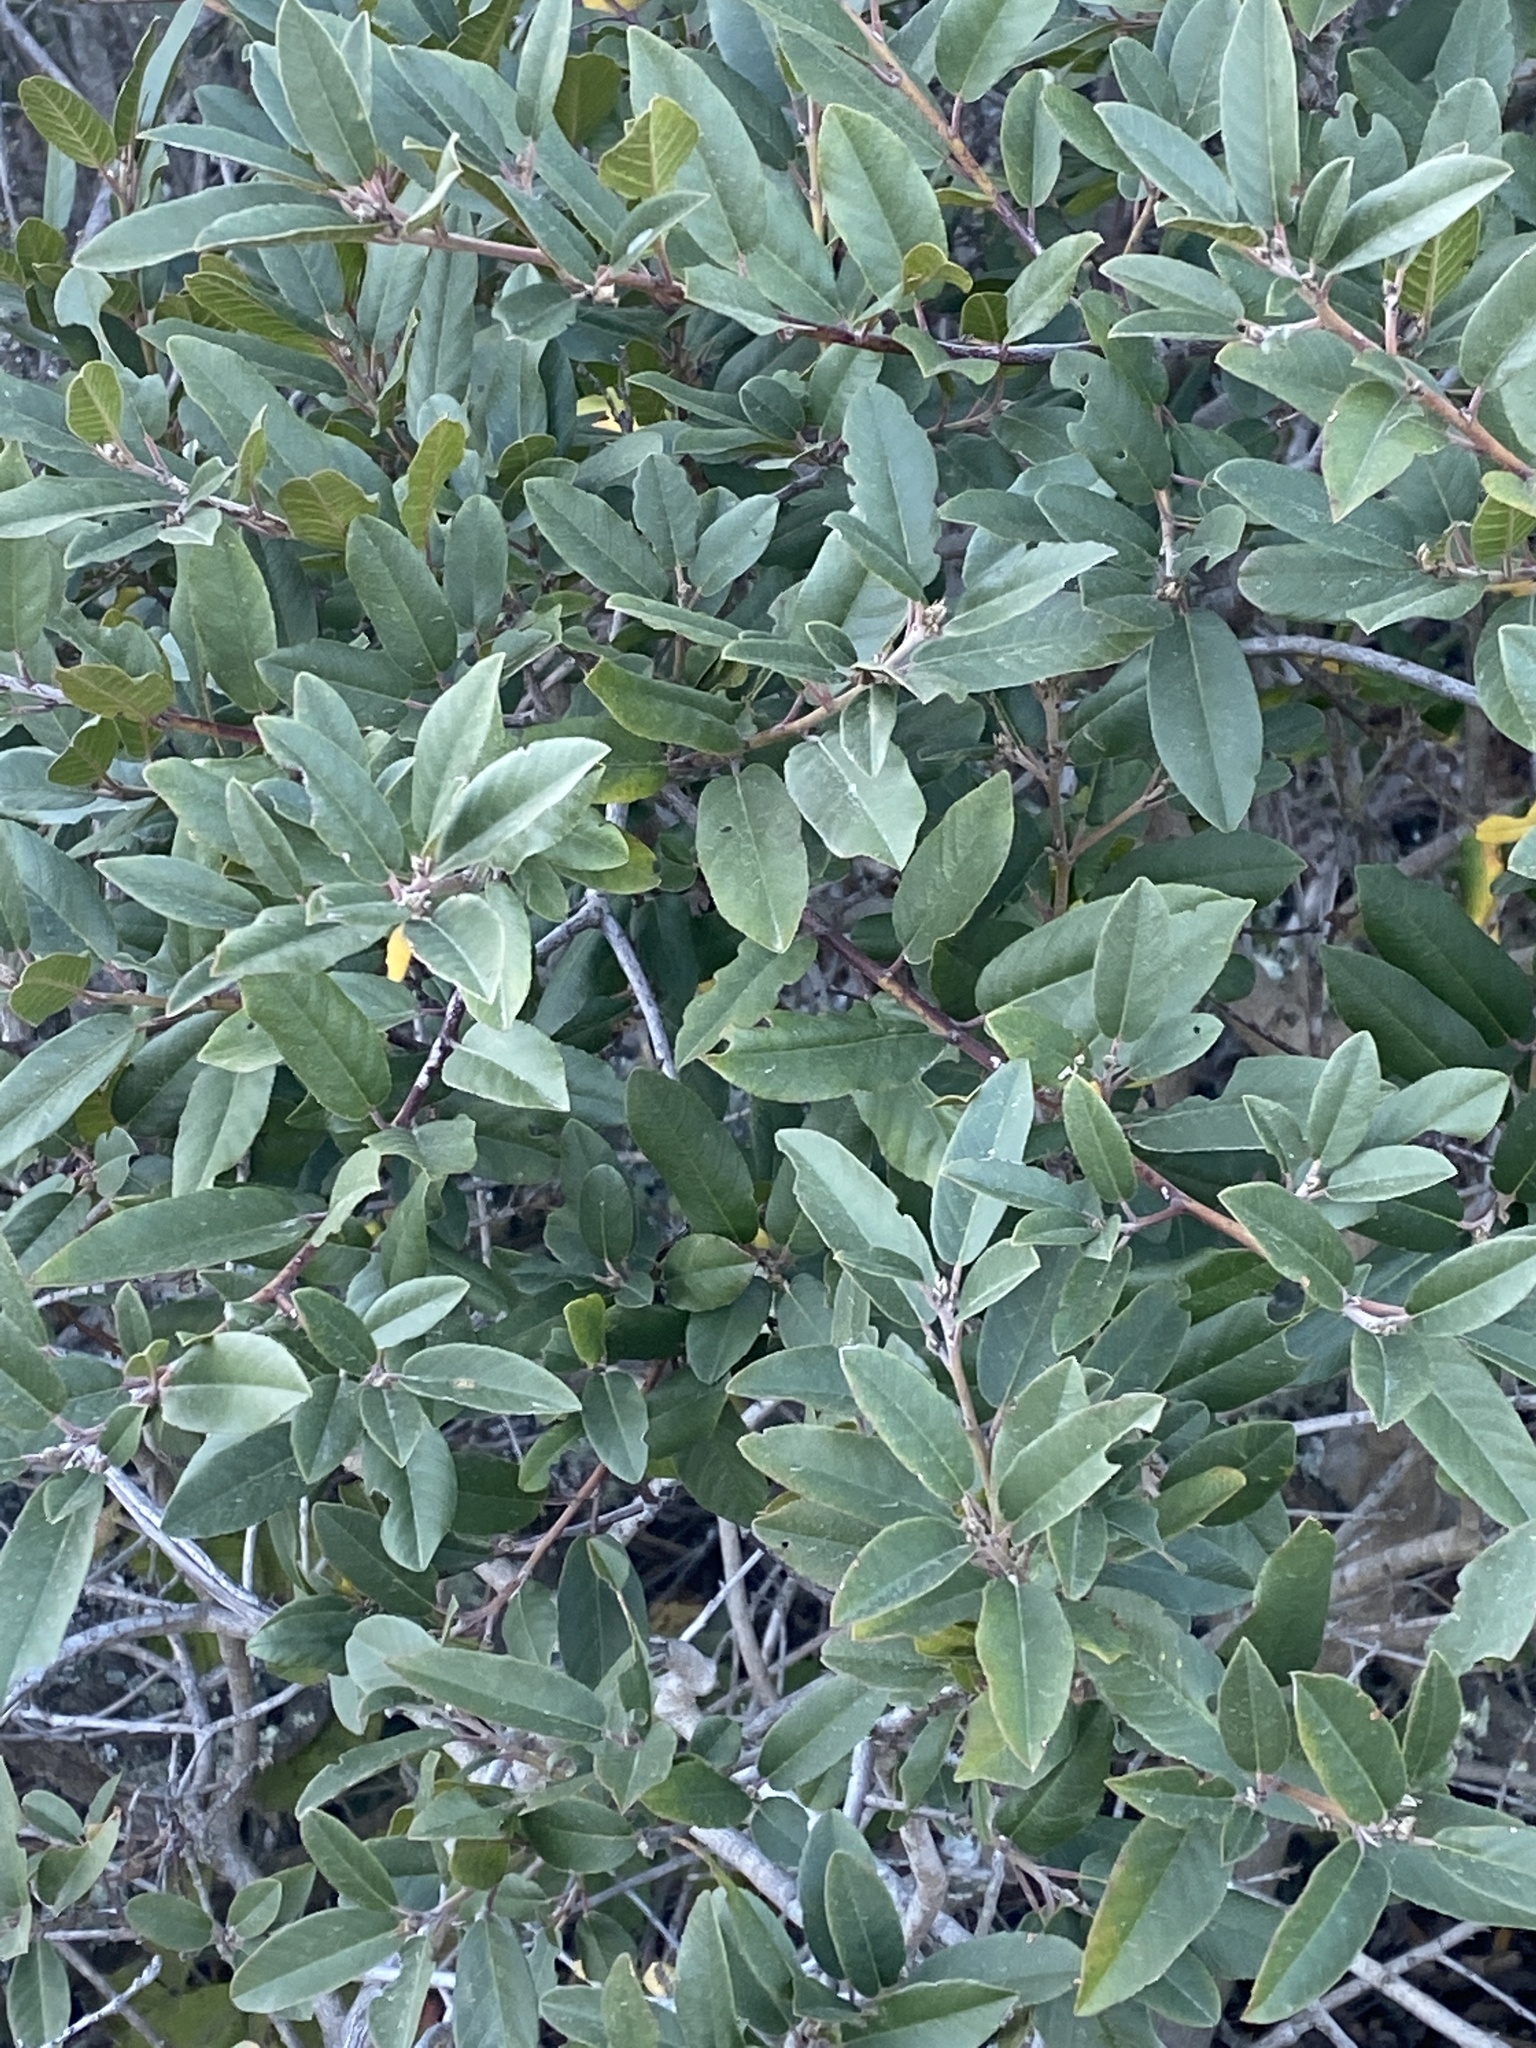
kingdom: Plantae
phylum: Tracheophyta
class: Magnoliopsida
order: Rosales
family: Rhamnaceae
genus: Frangula
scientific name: Frangula californica
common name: California buckthorn
